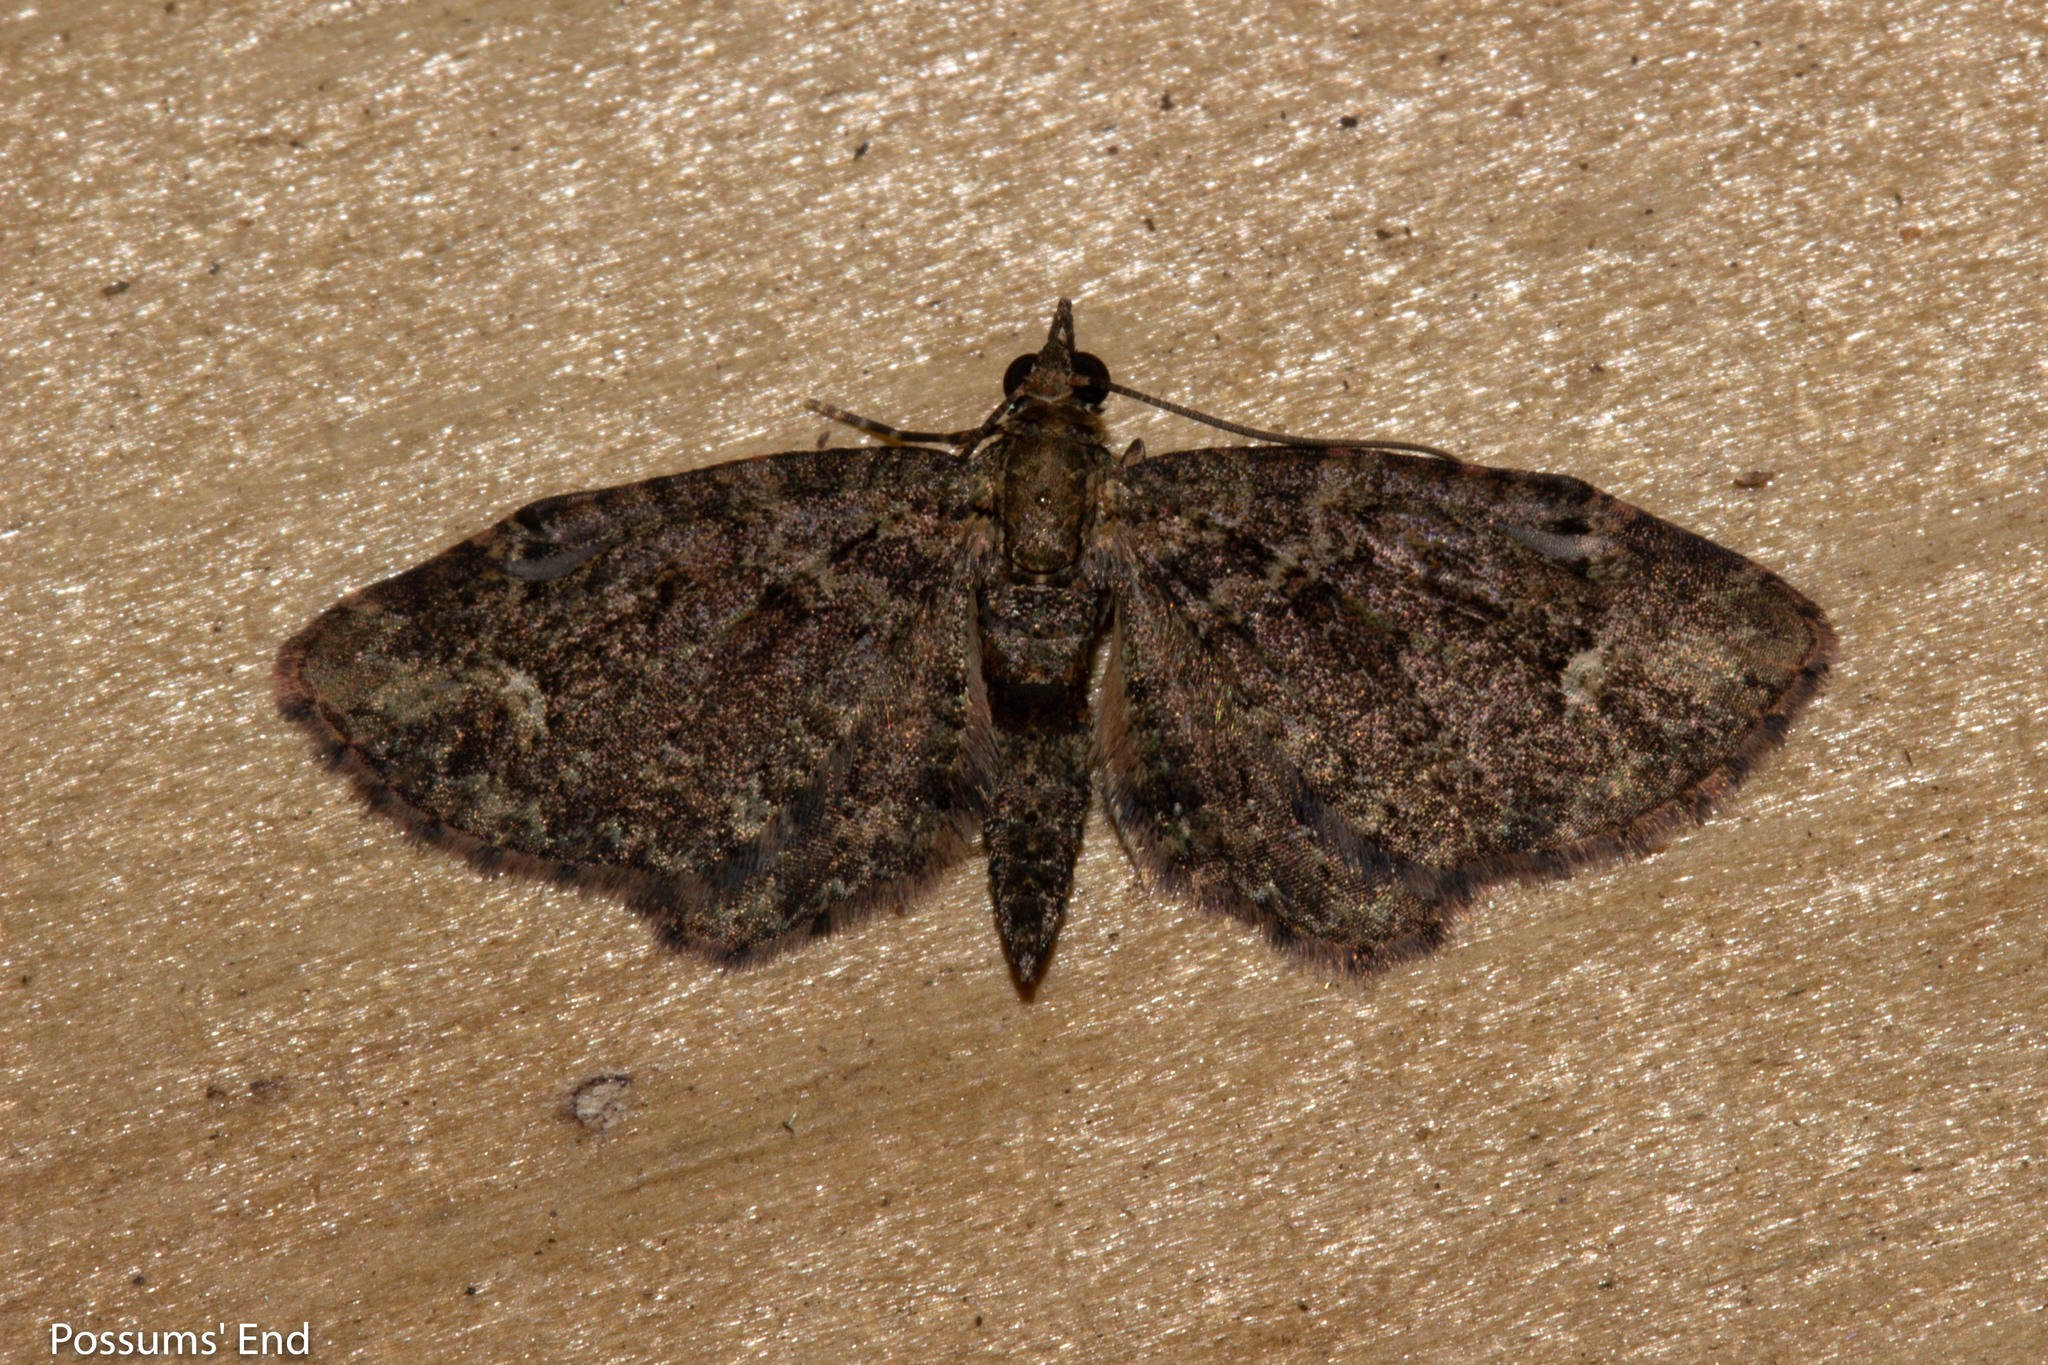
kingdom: Animalia
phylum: Arthropoda
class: Insecta
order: Lepidoptera
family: Geometridae
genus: Pasiphilodes
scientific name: Pasiphilodes testulata
